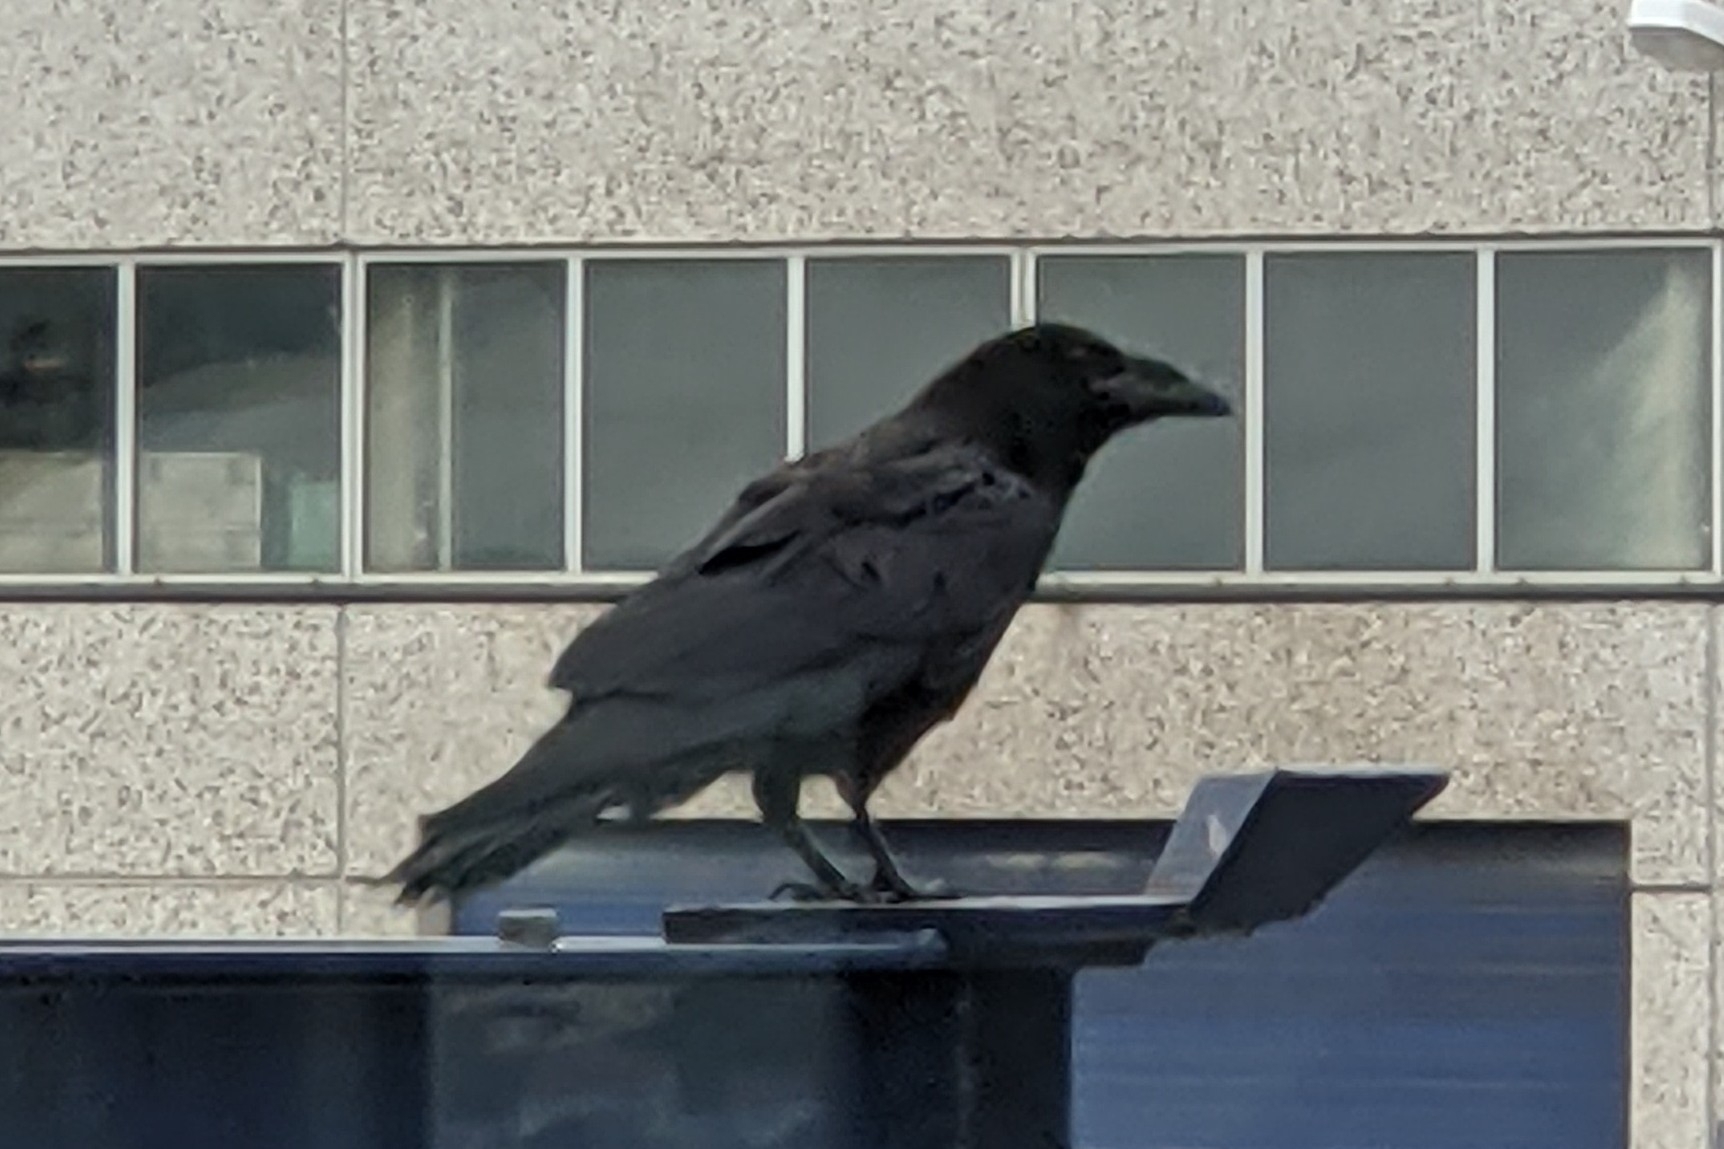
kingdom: Animalia
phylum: Chordata
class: Aves
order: Passeriformes
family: Corvidae
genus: Corvus
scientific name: Corvus corax
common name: Common raven
